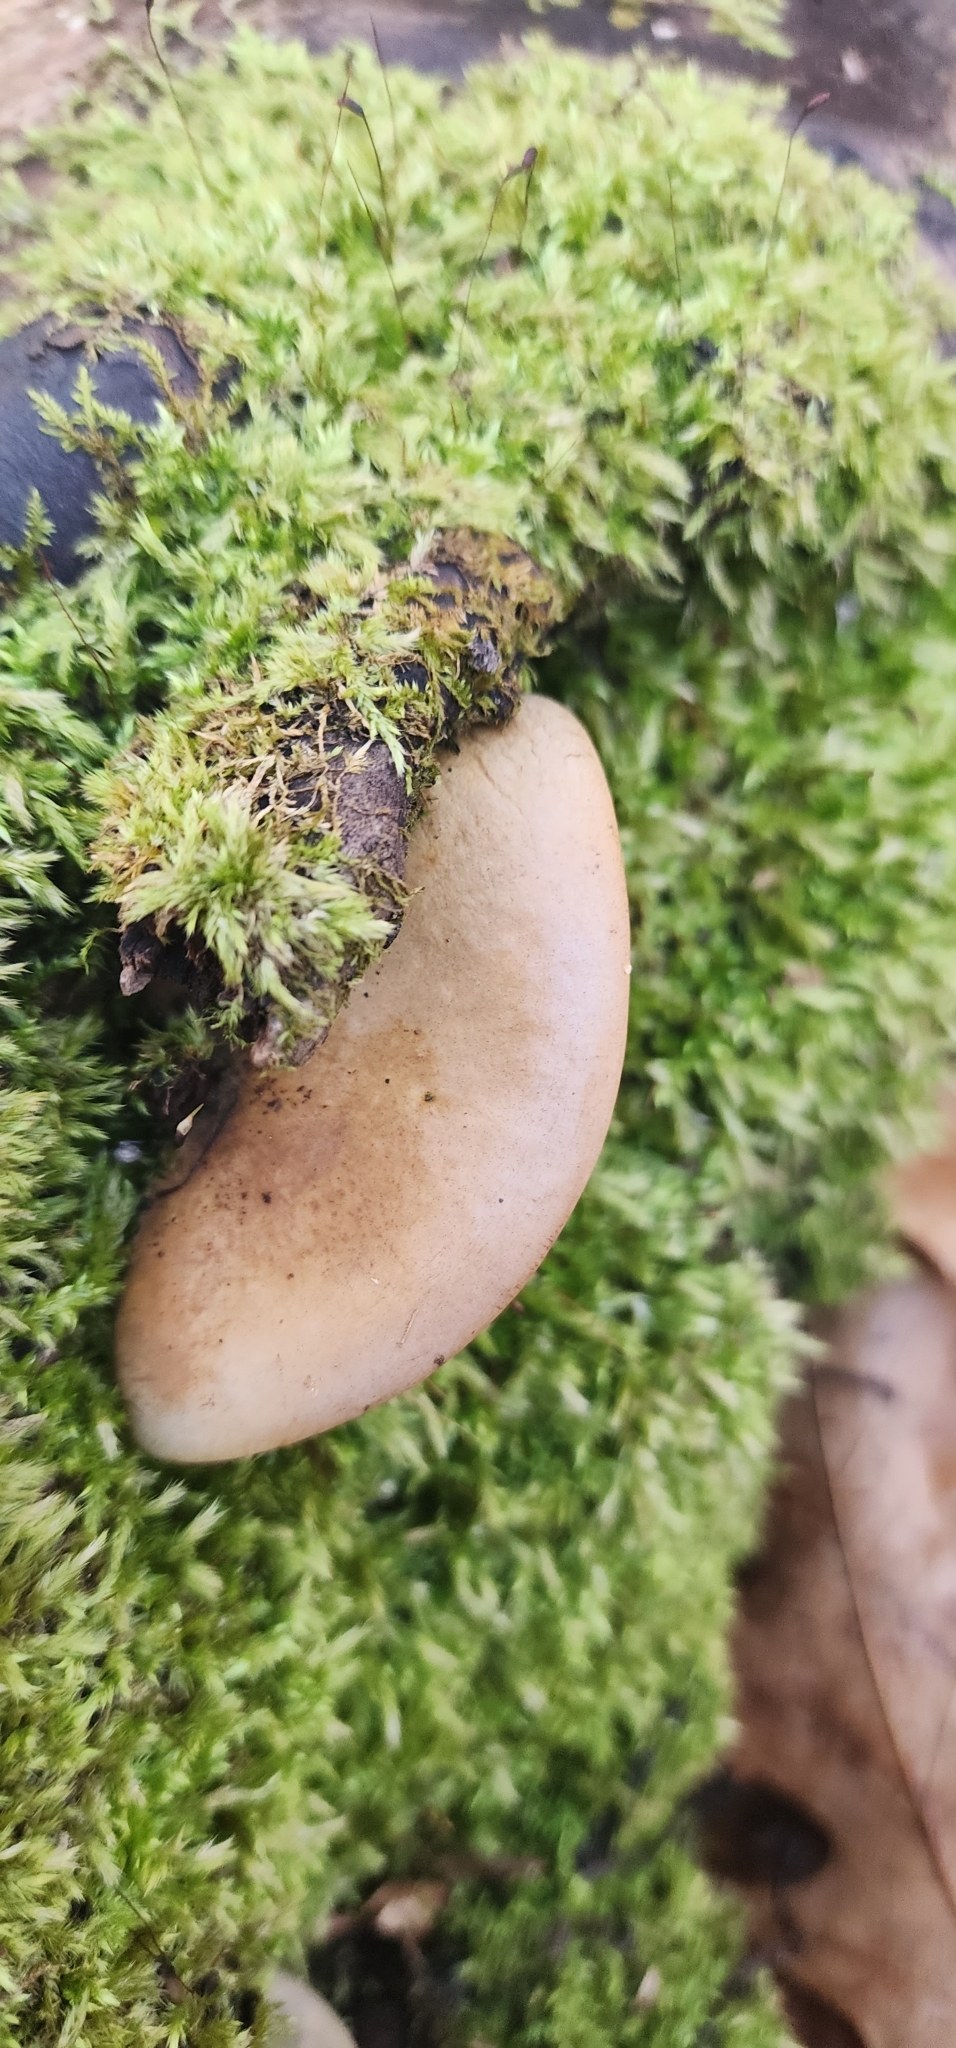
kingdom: Fungi
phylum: Basidiomycota
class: Agaricomycetes
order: Agaricales
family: Sarcomyxaceae
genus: Sarcomyxa
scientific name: Sarcomyxa serotina
